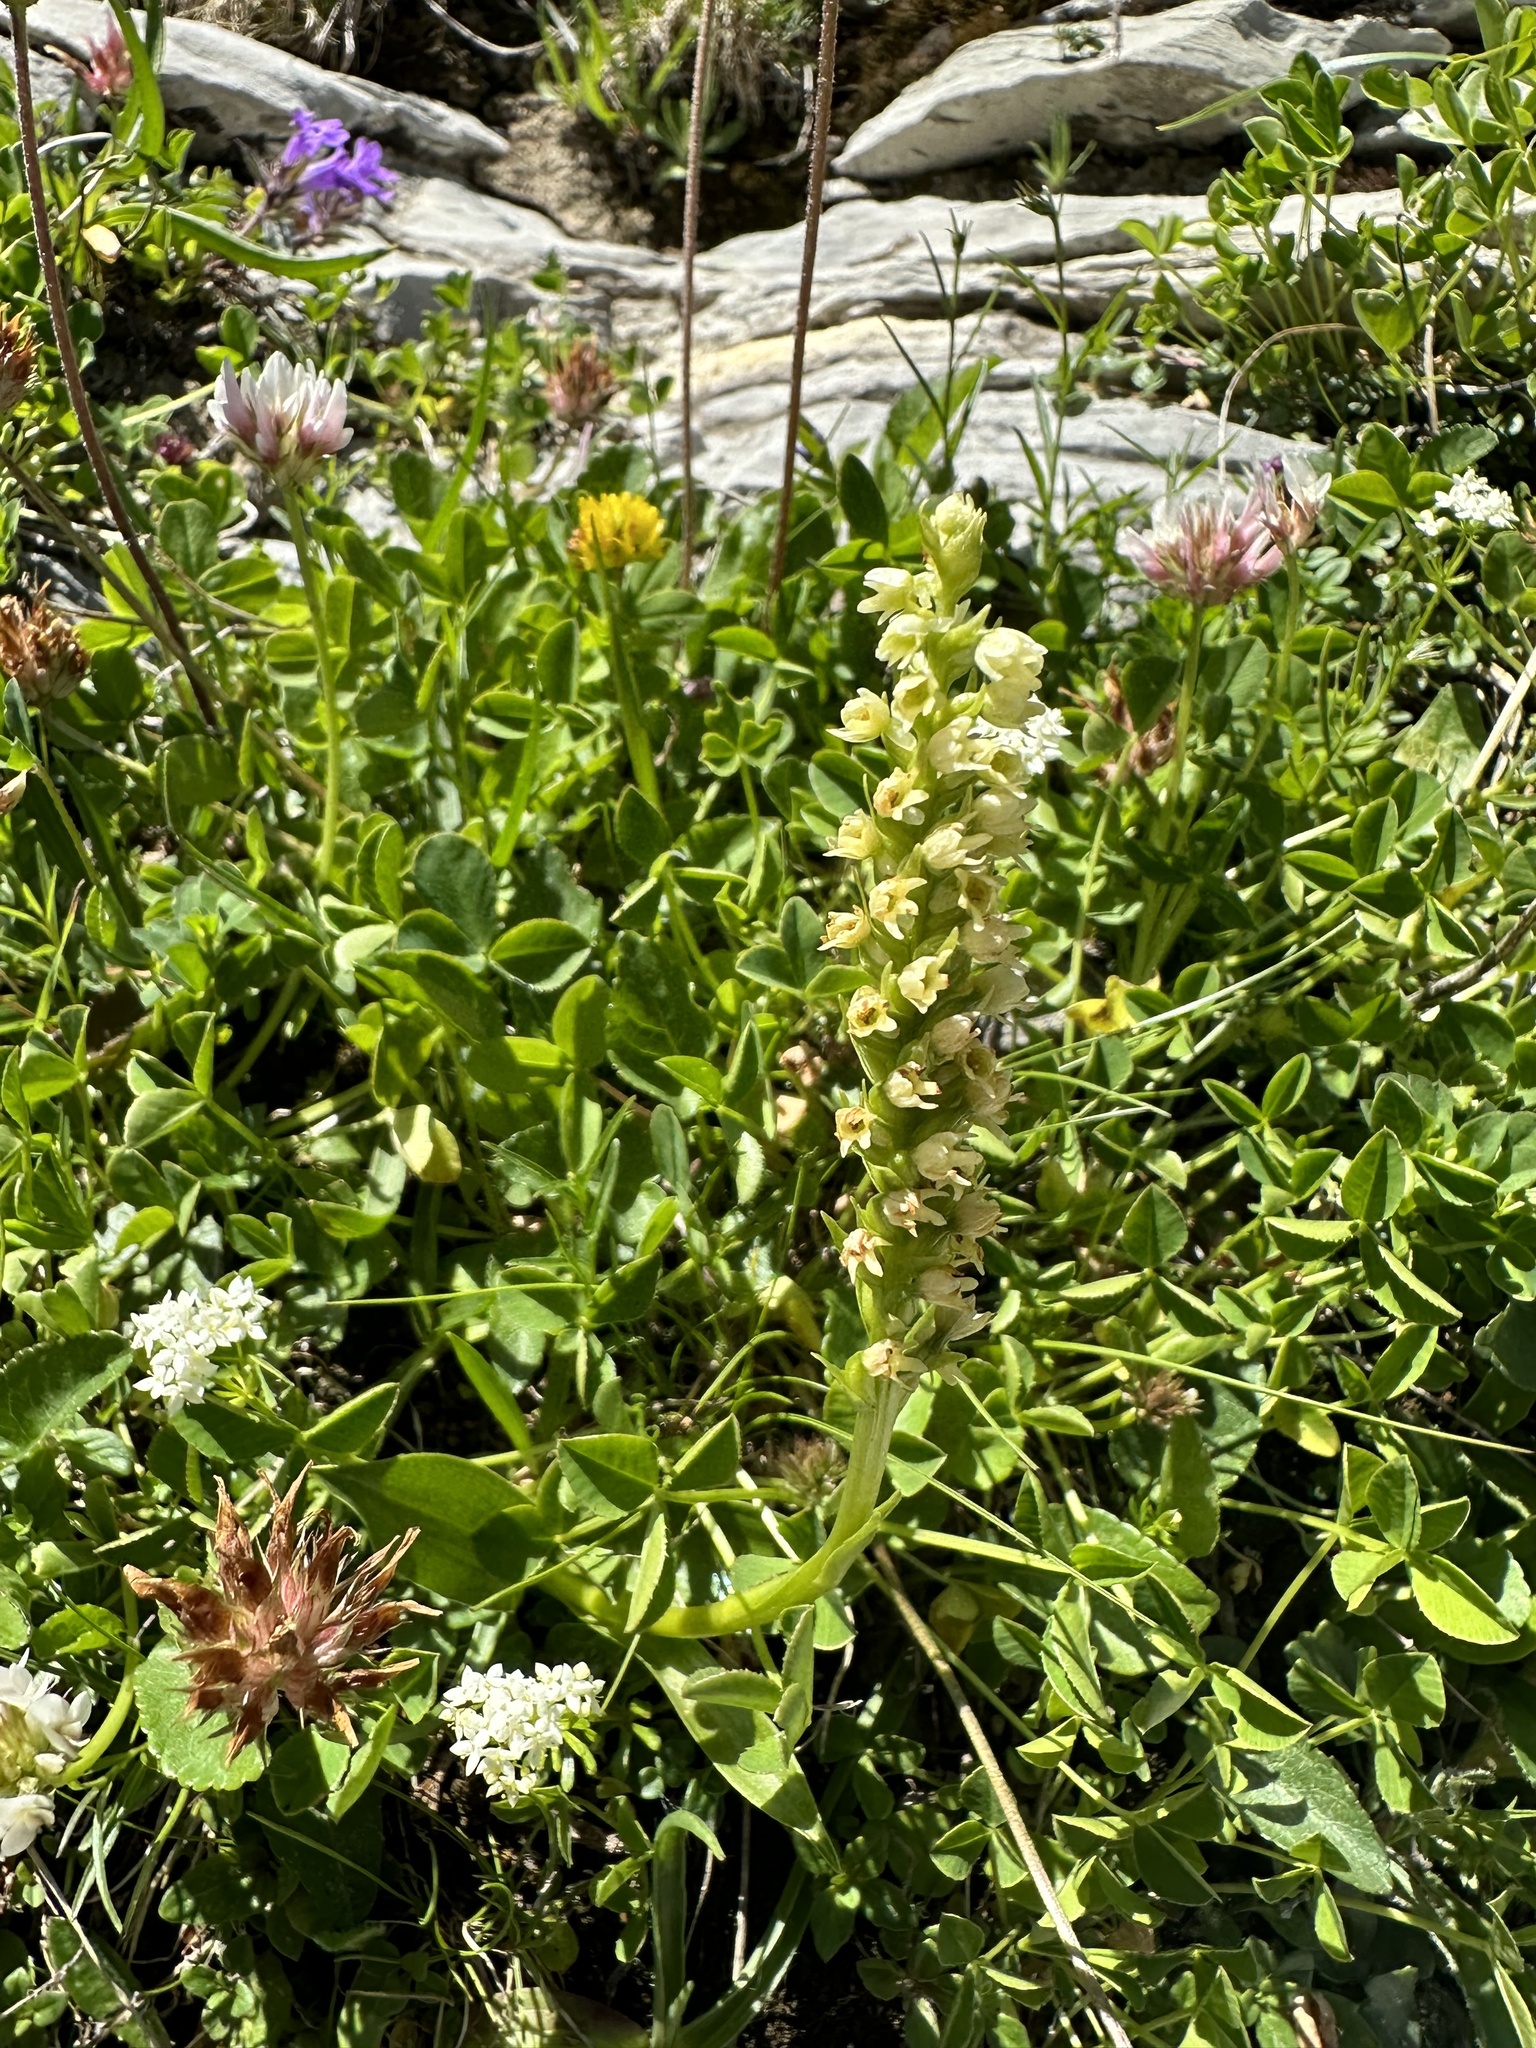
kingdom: Plantae
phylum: Tracheophyta
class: Liliopsida
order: Asparagales
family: Orchidaceae
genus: Pseudorchis
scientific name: Pseudorchis albida
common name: Small-white orchid
